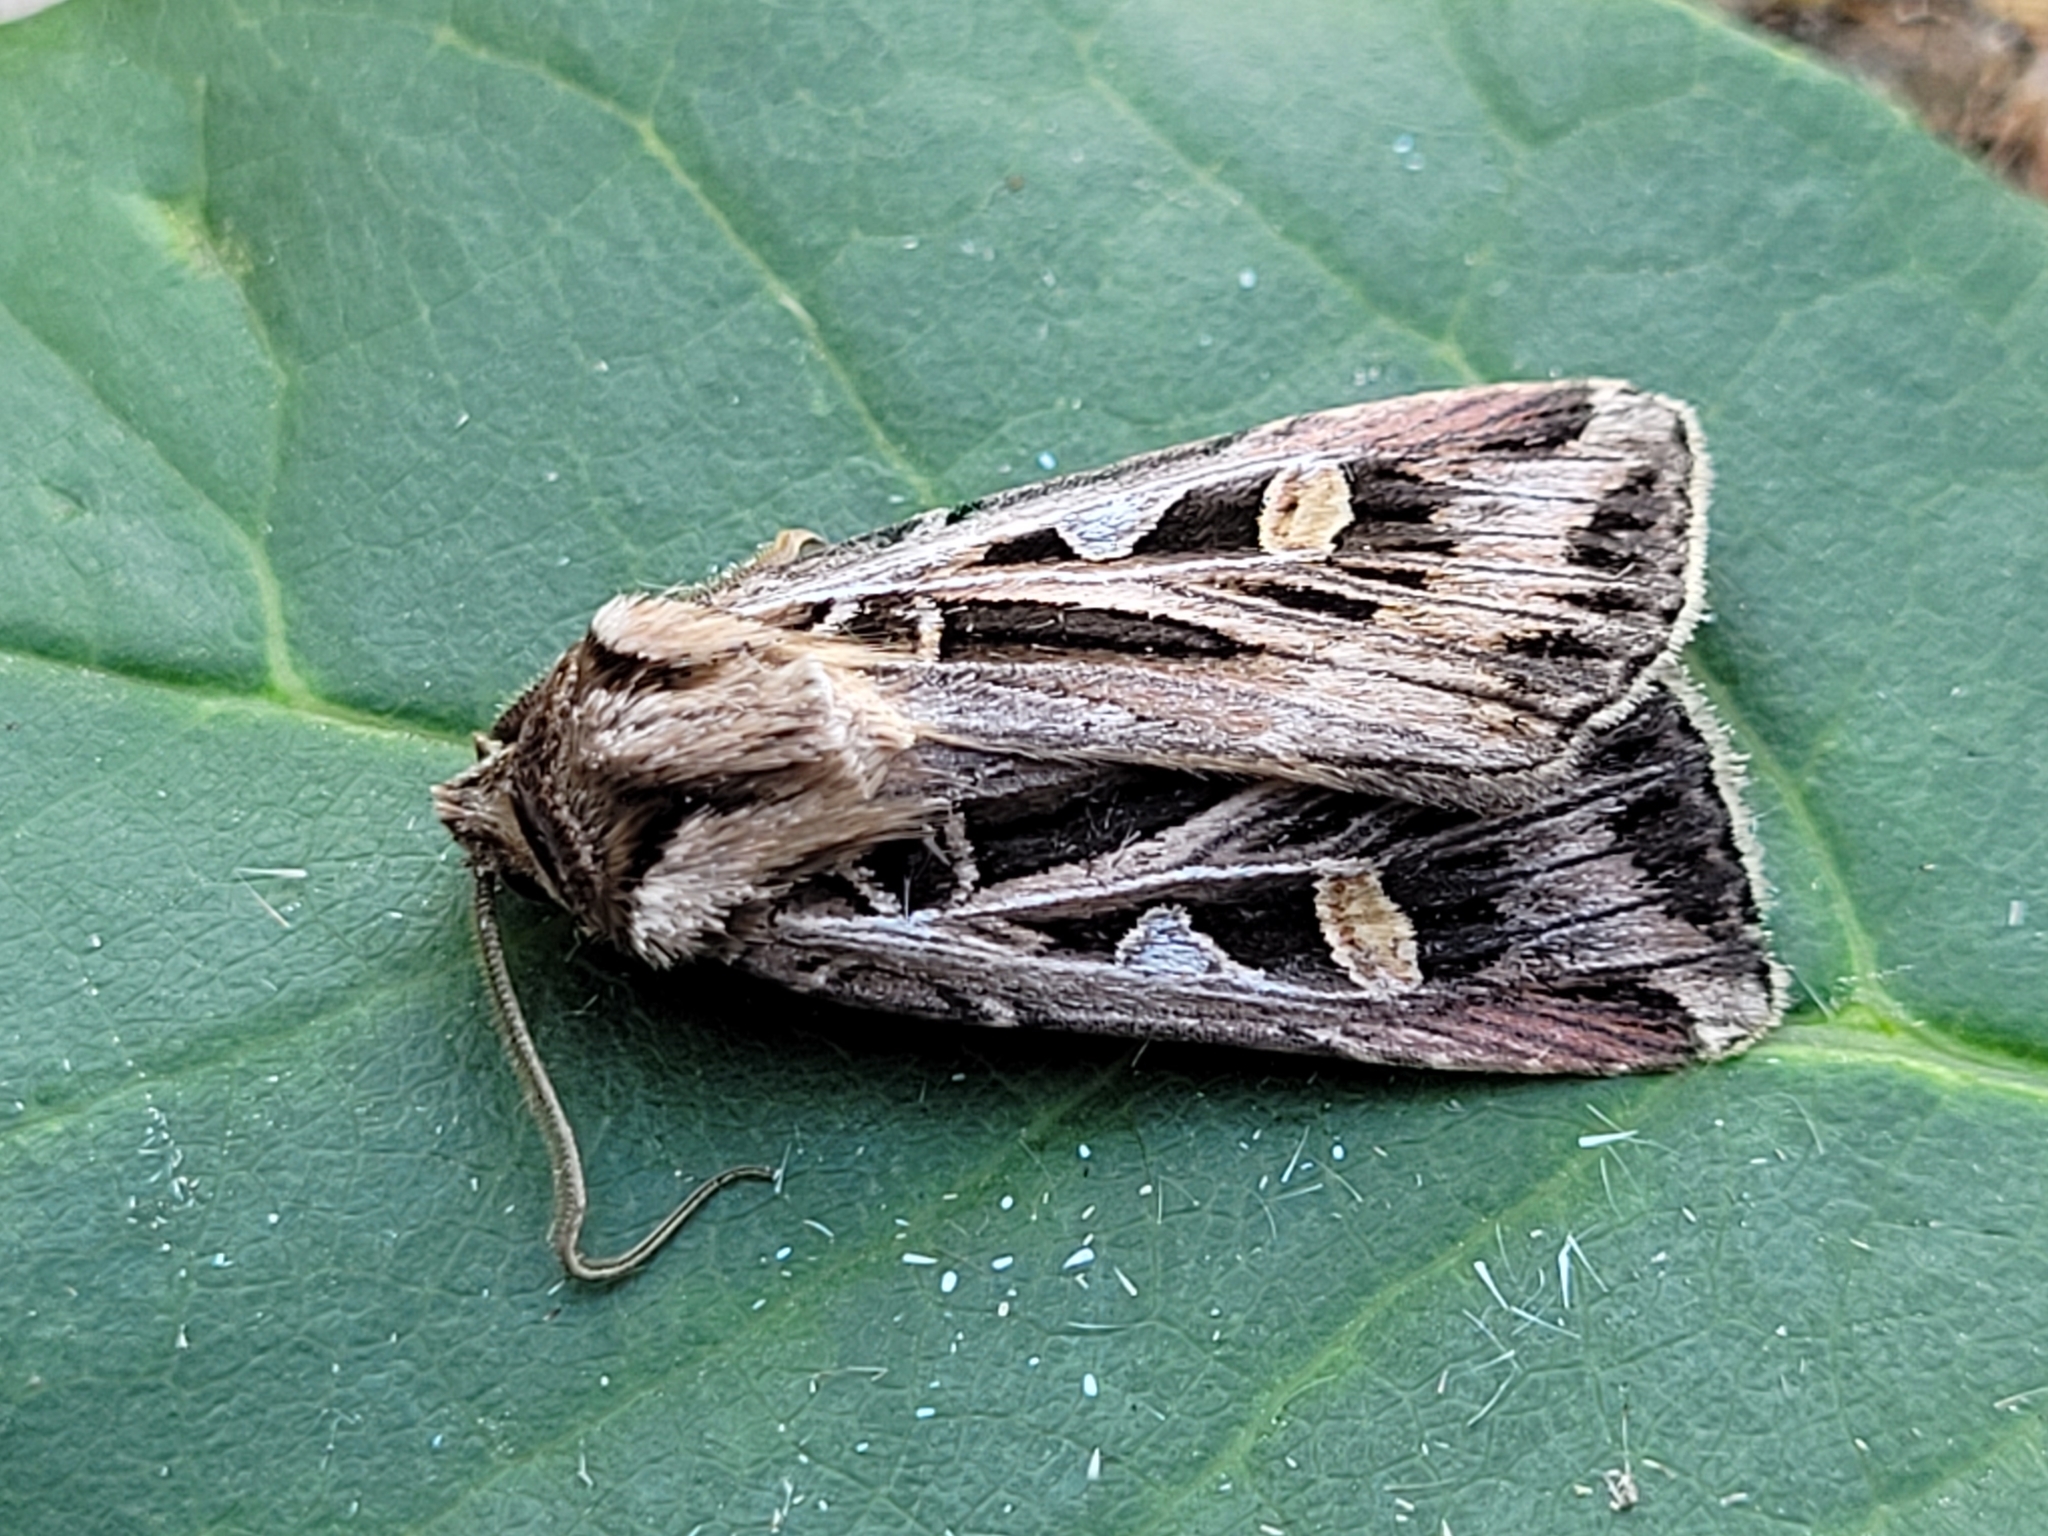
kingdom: Animalia
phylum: Arthropoda
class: Insecta
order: Lepidoptera
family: Noctuidae
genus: Feltia
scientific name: Feltia jaculifera
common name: Dingy cutworm moth
